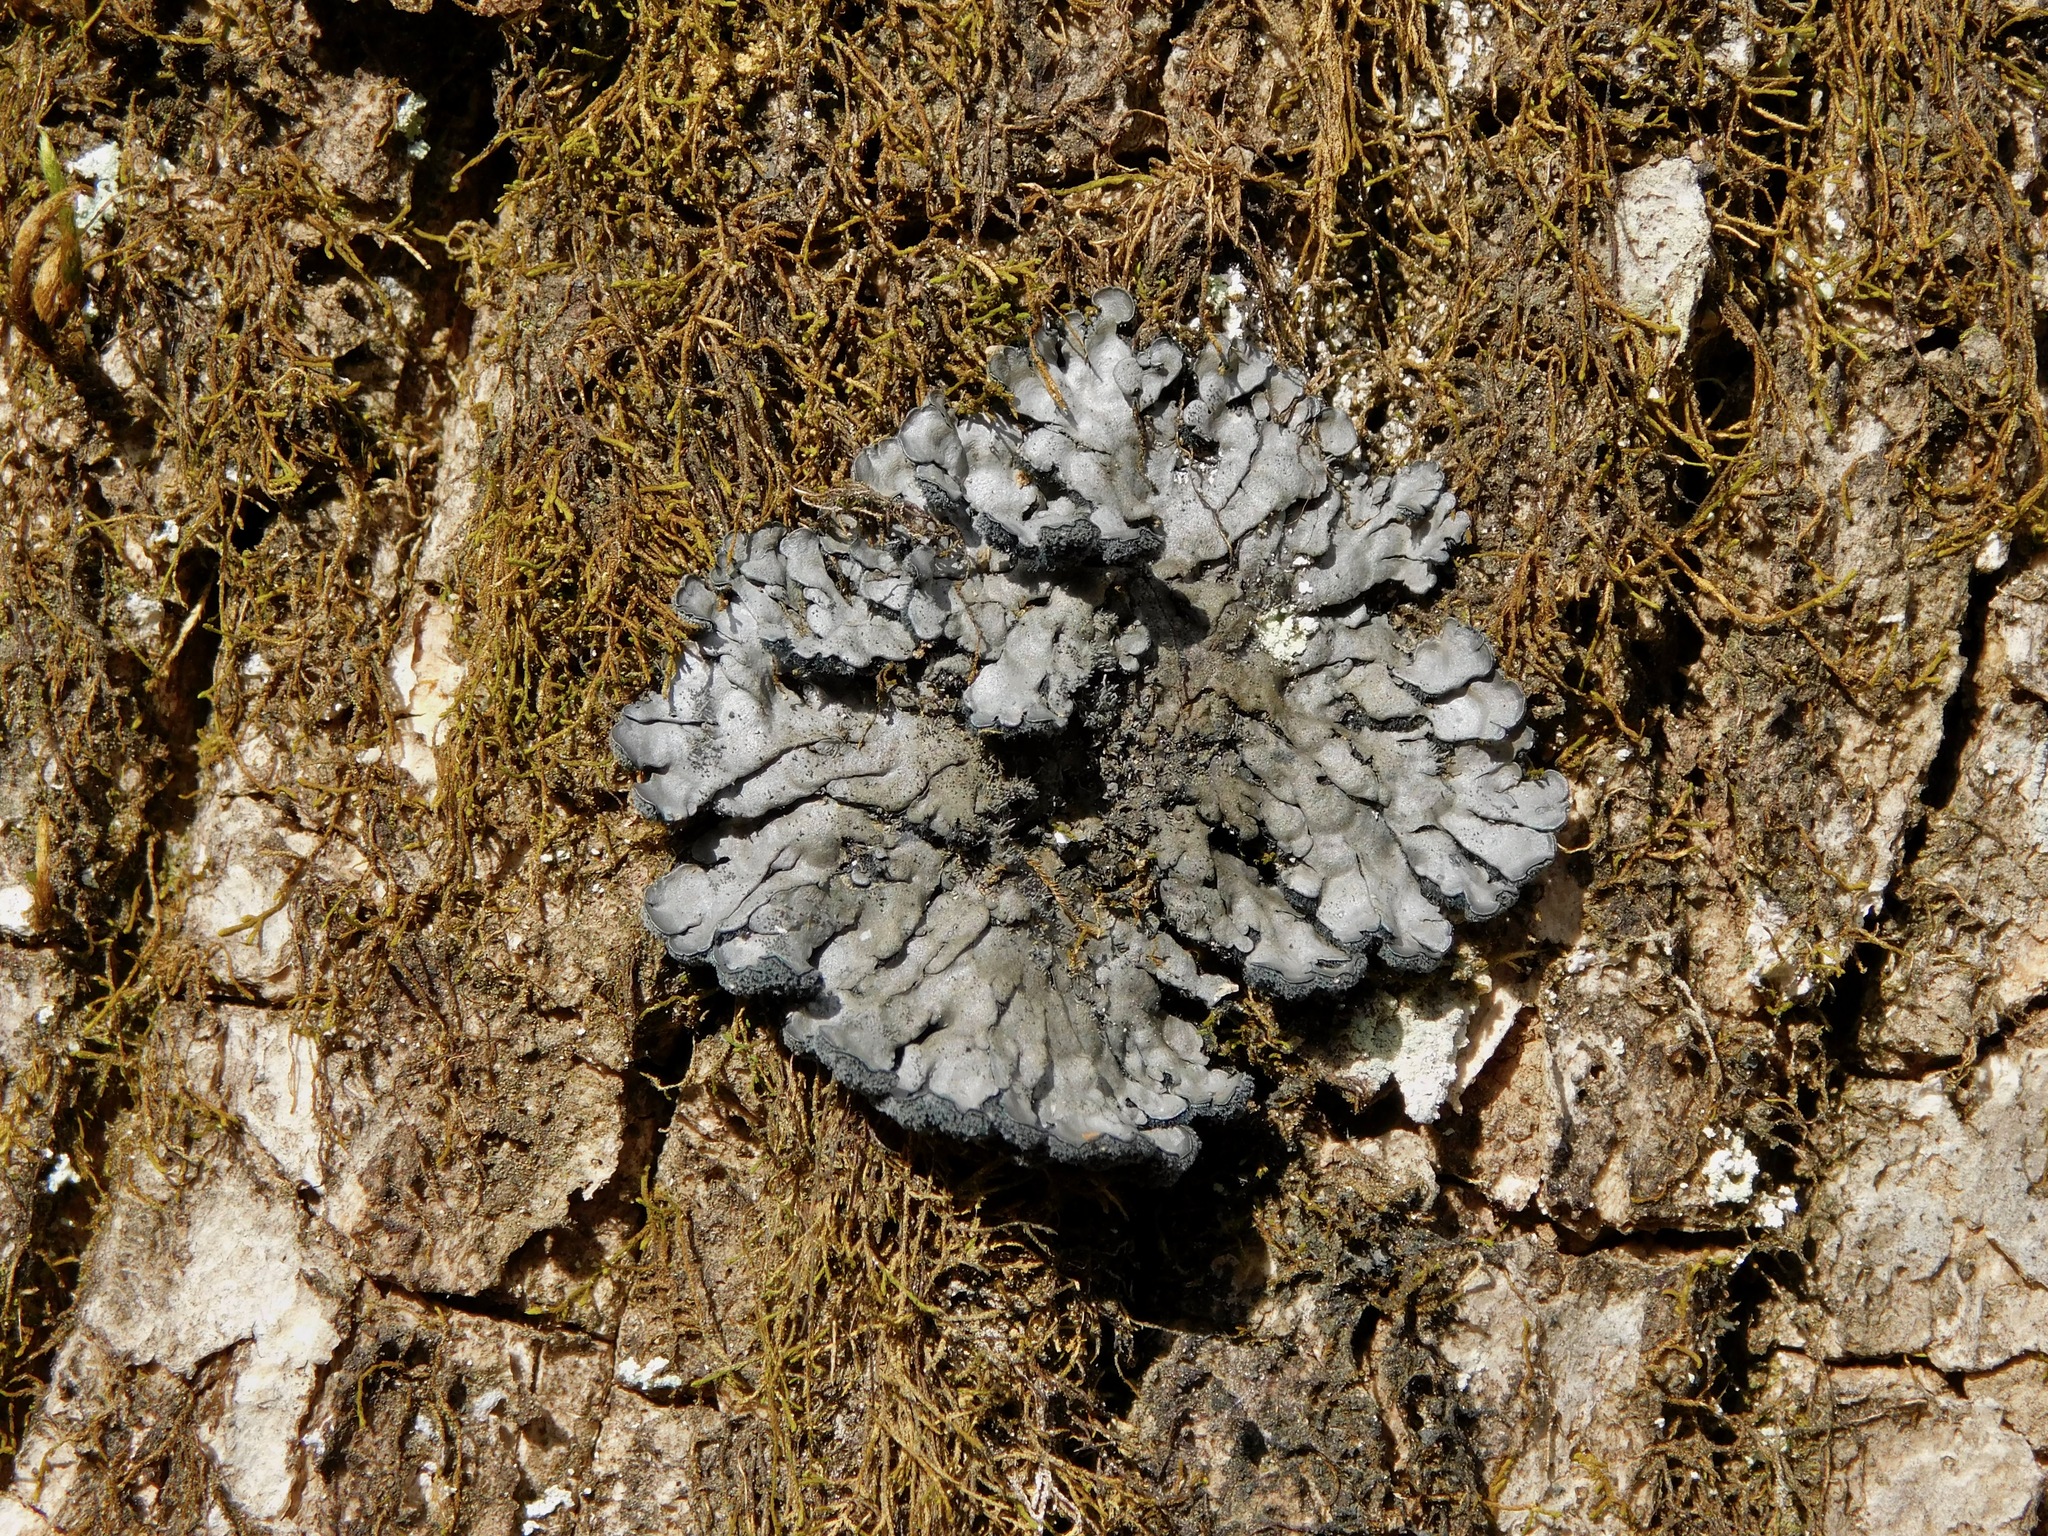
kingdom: Fungi
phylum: Ascomycota
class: Lecanoromycetes
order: Peltigerales
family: Coccocarpiaceae
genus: Coccocarpia
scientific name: Coccocarpia palmicola
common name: Salted shell lichen
